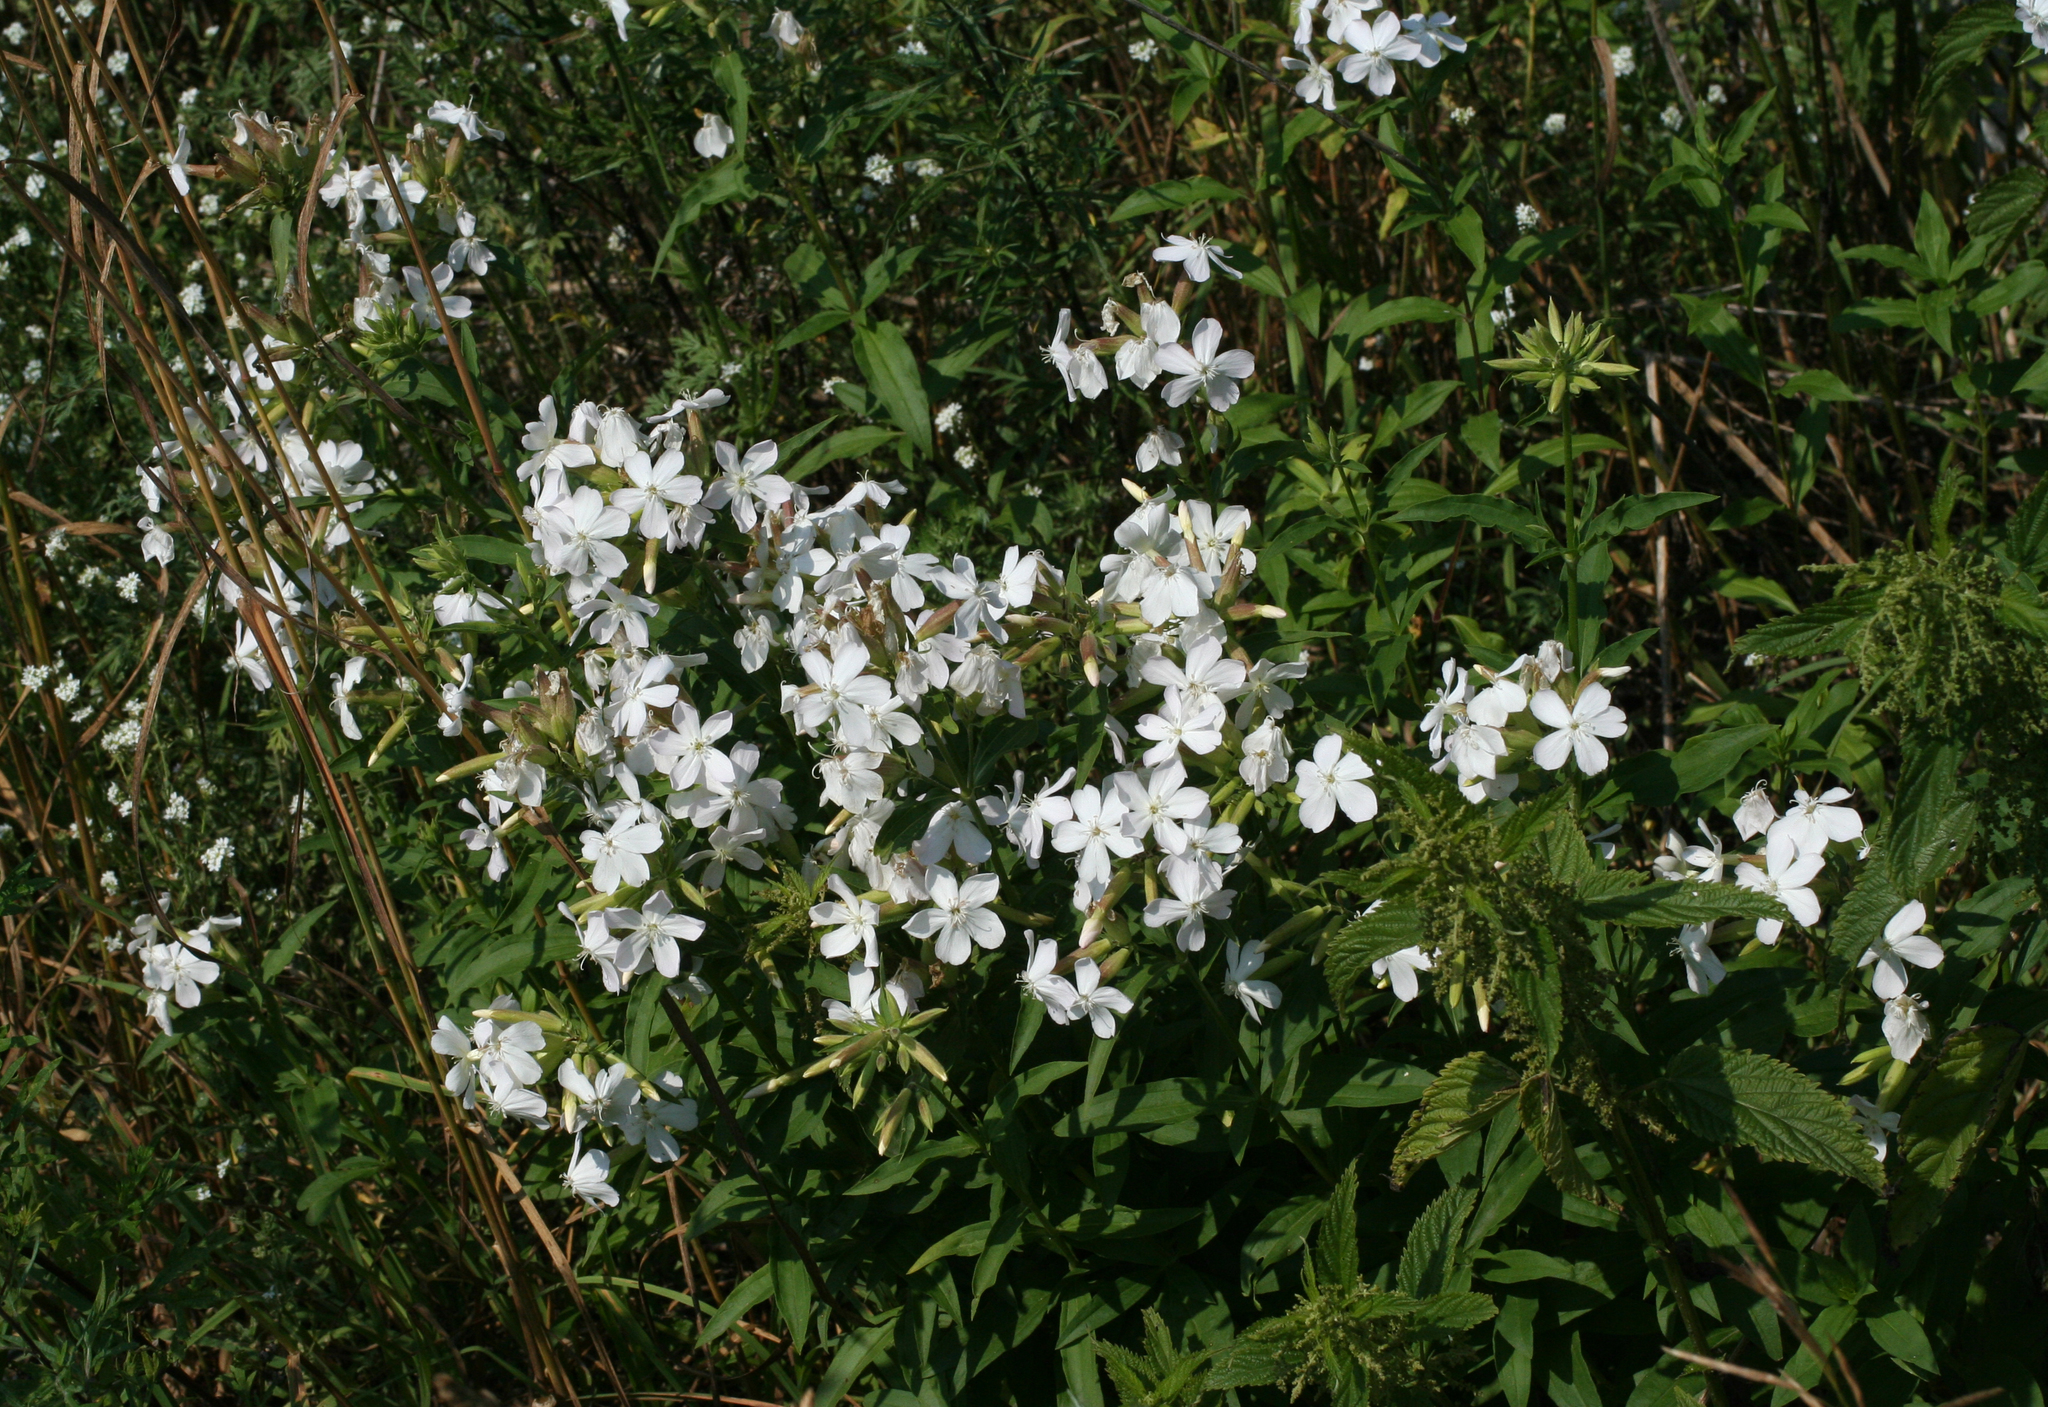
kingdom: Plantae
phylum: Tracheophyta
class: Magnoliopsida
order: Caryophyllales
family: Caryophyllaceae
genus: Saponaria
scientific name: Saponaria officinalis
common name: Soapwort
